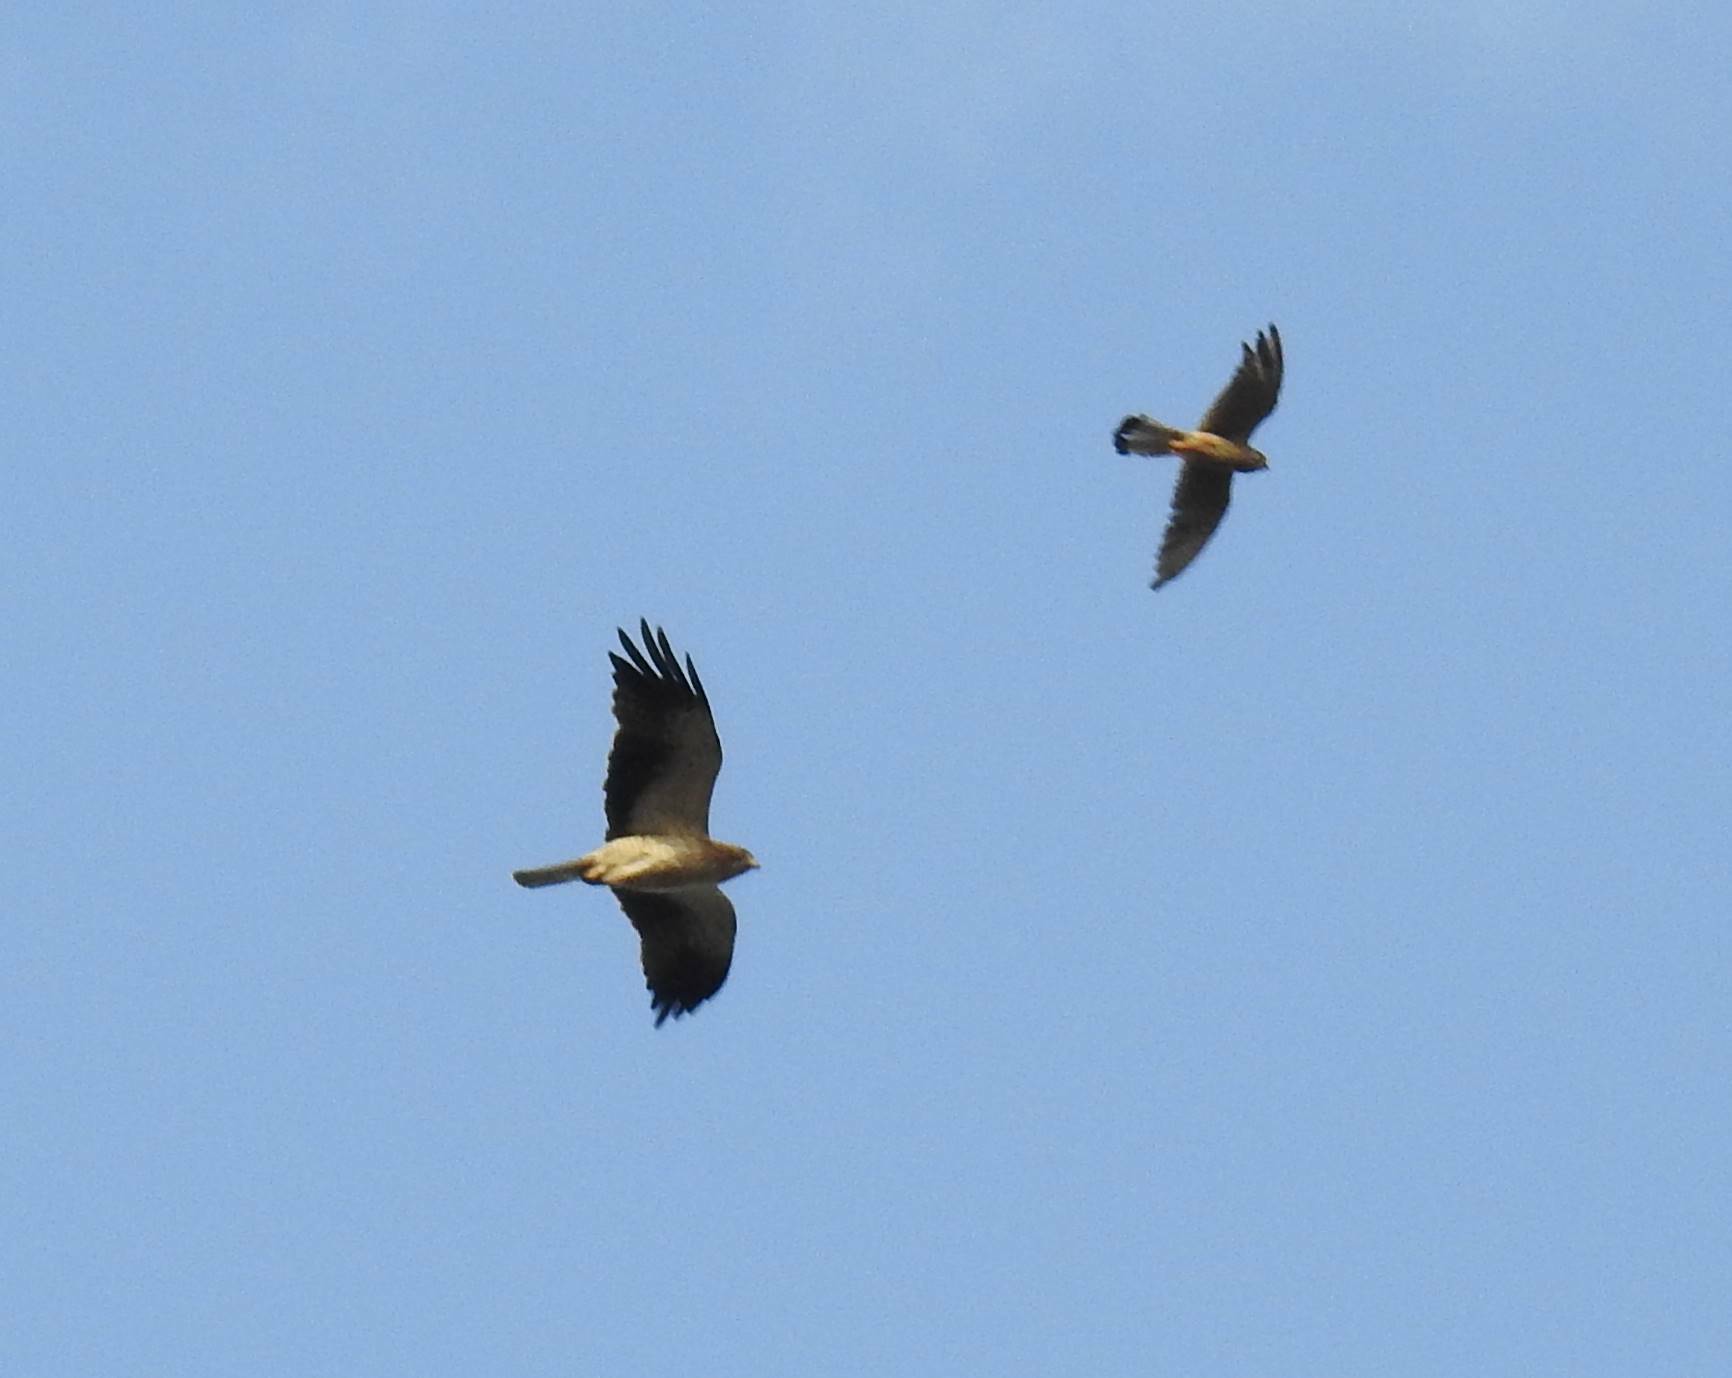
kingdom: Animalia
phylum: Chordata
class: Aves
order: Accipitriformes
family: Accipitridae
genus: Hieraaetus
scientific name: Hieraaetus pennatus
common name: Booted eagle
